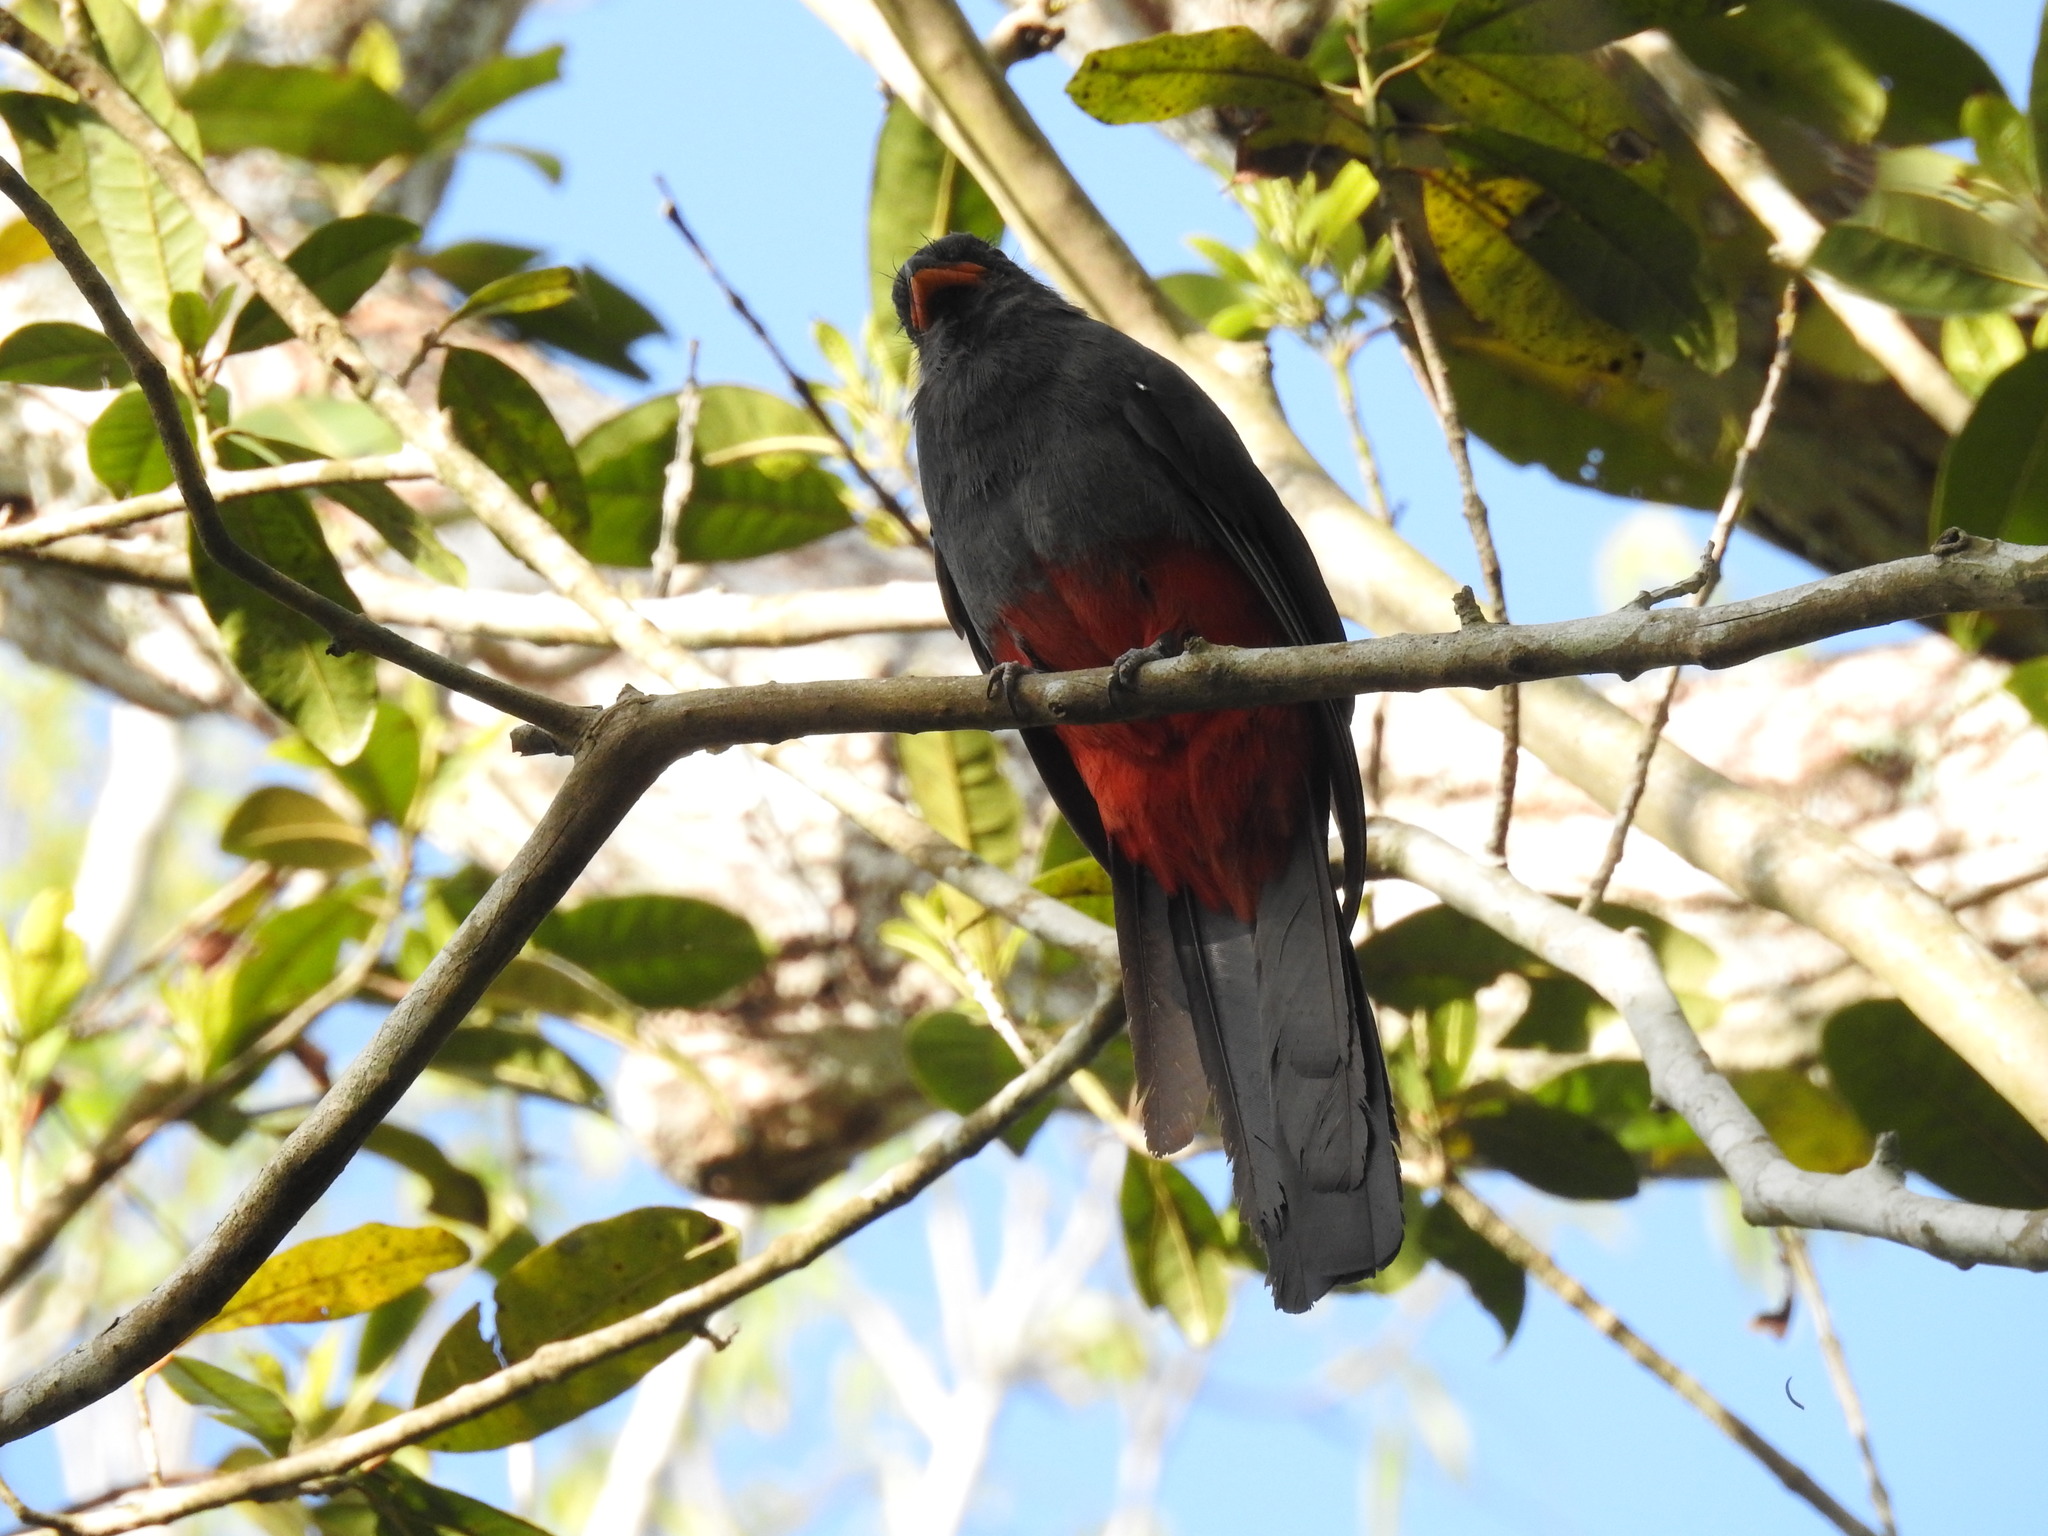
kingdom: Animalia
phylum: Chordata
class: Aves
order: Trogoniformes
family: Trogonidae
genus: Trogon
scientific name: Trogon massena
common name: Slaty-tailed trogon
